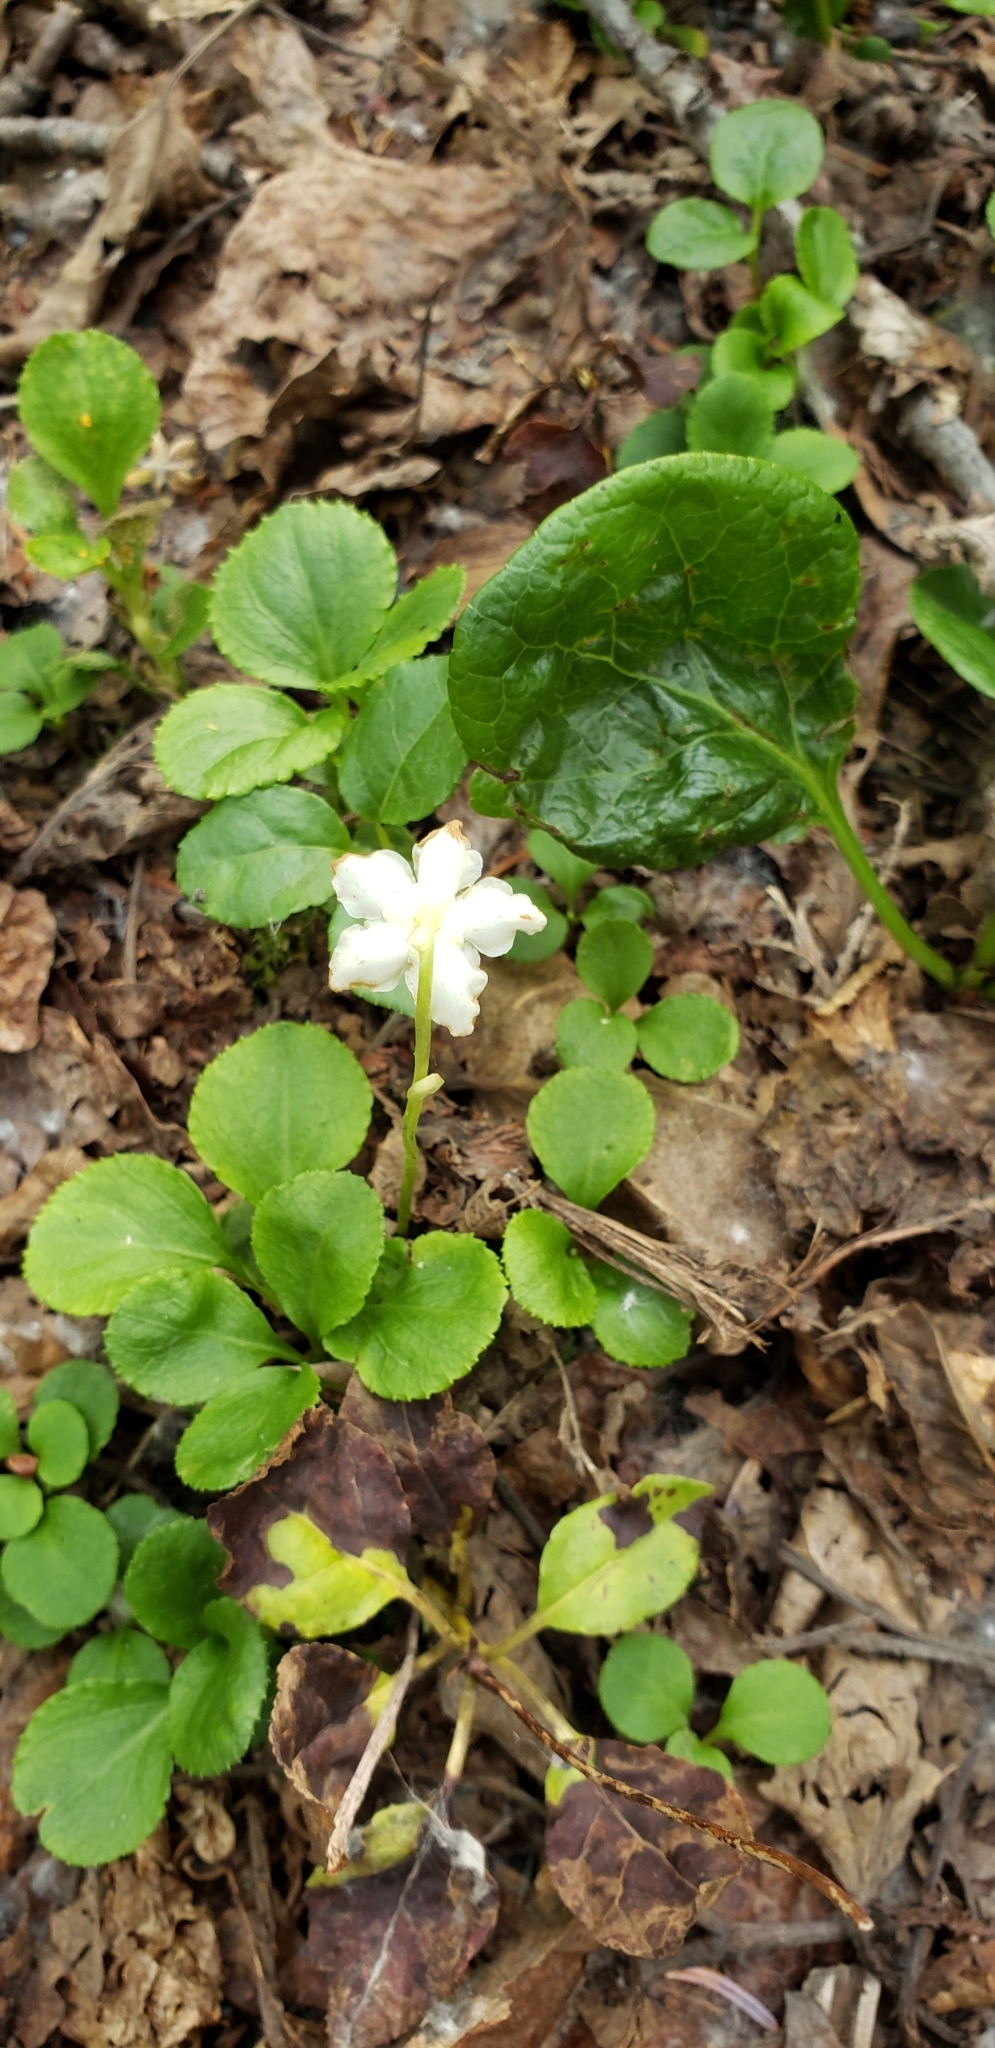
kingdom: Plantae
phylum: Tracheophyta
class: Magnoliopsida
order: Ericales
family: Ericaceae
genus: Moneses
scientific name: Moneses uniflora
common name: One-flowered wintergreen
